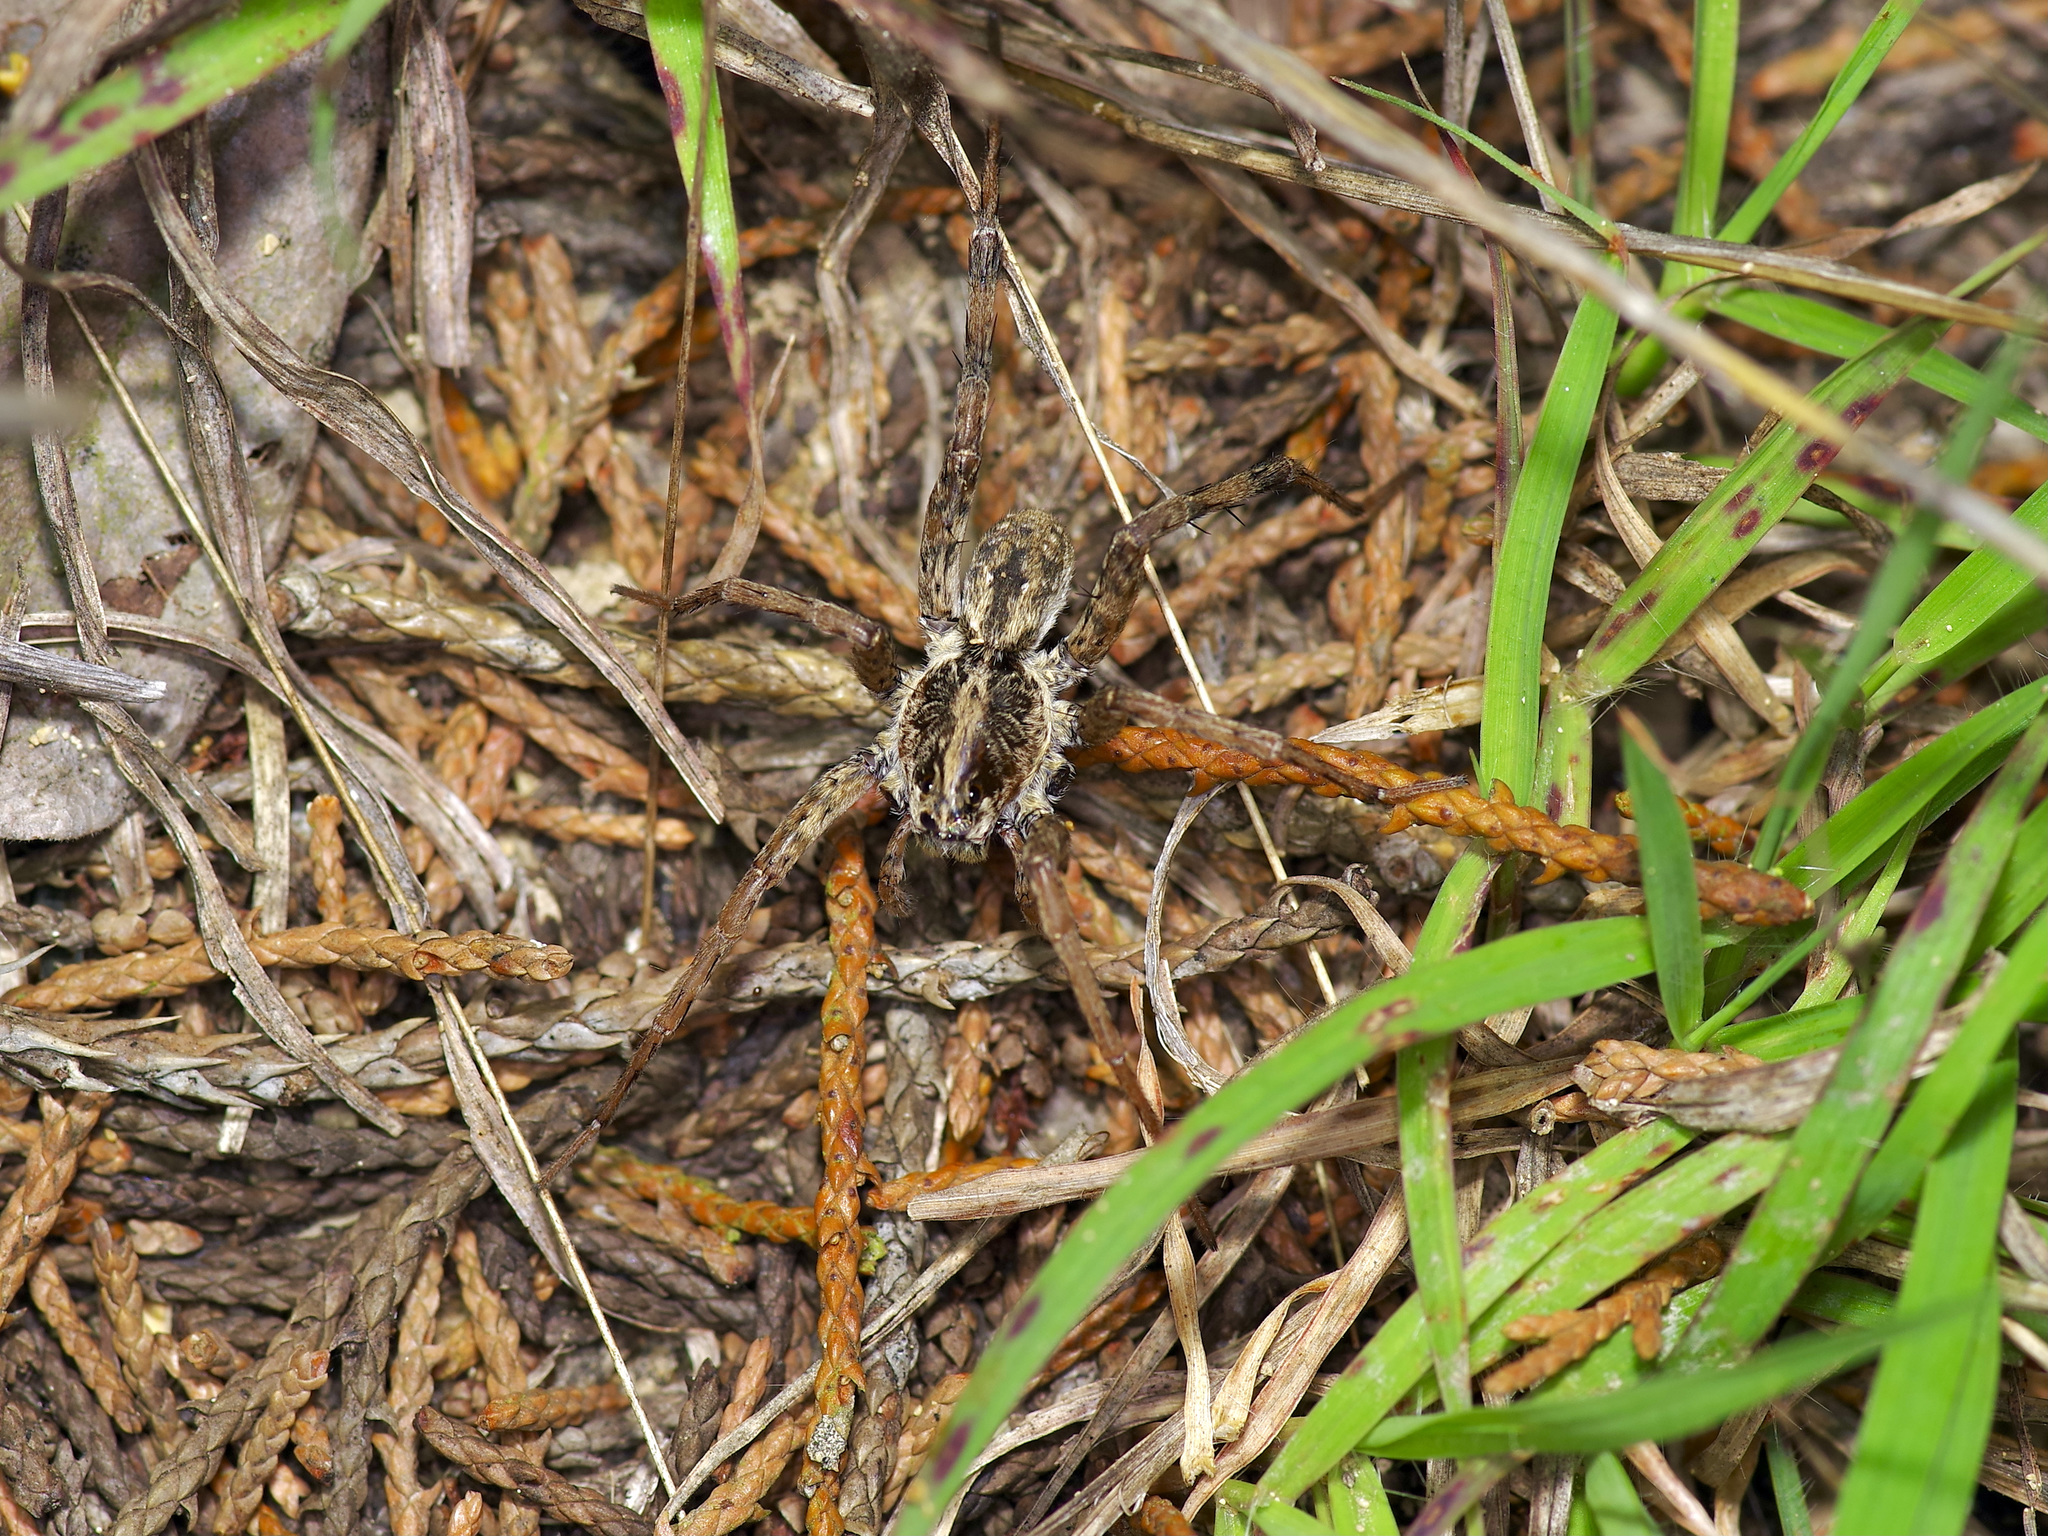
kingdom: Animalia
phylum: Arthropoda
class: Arachnida
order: Araneae
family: Lycosidae
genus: Hogna
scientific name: Hogna antelucana
